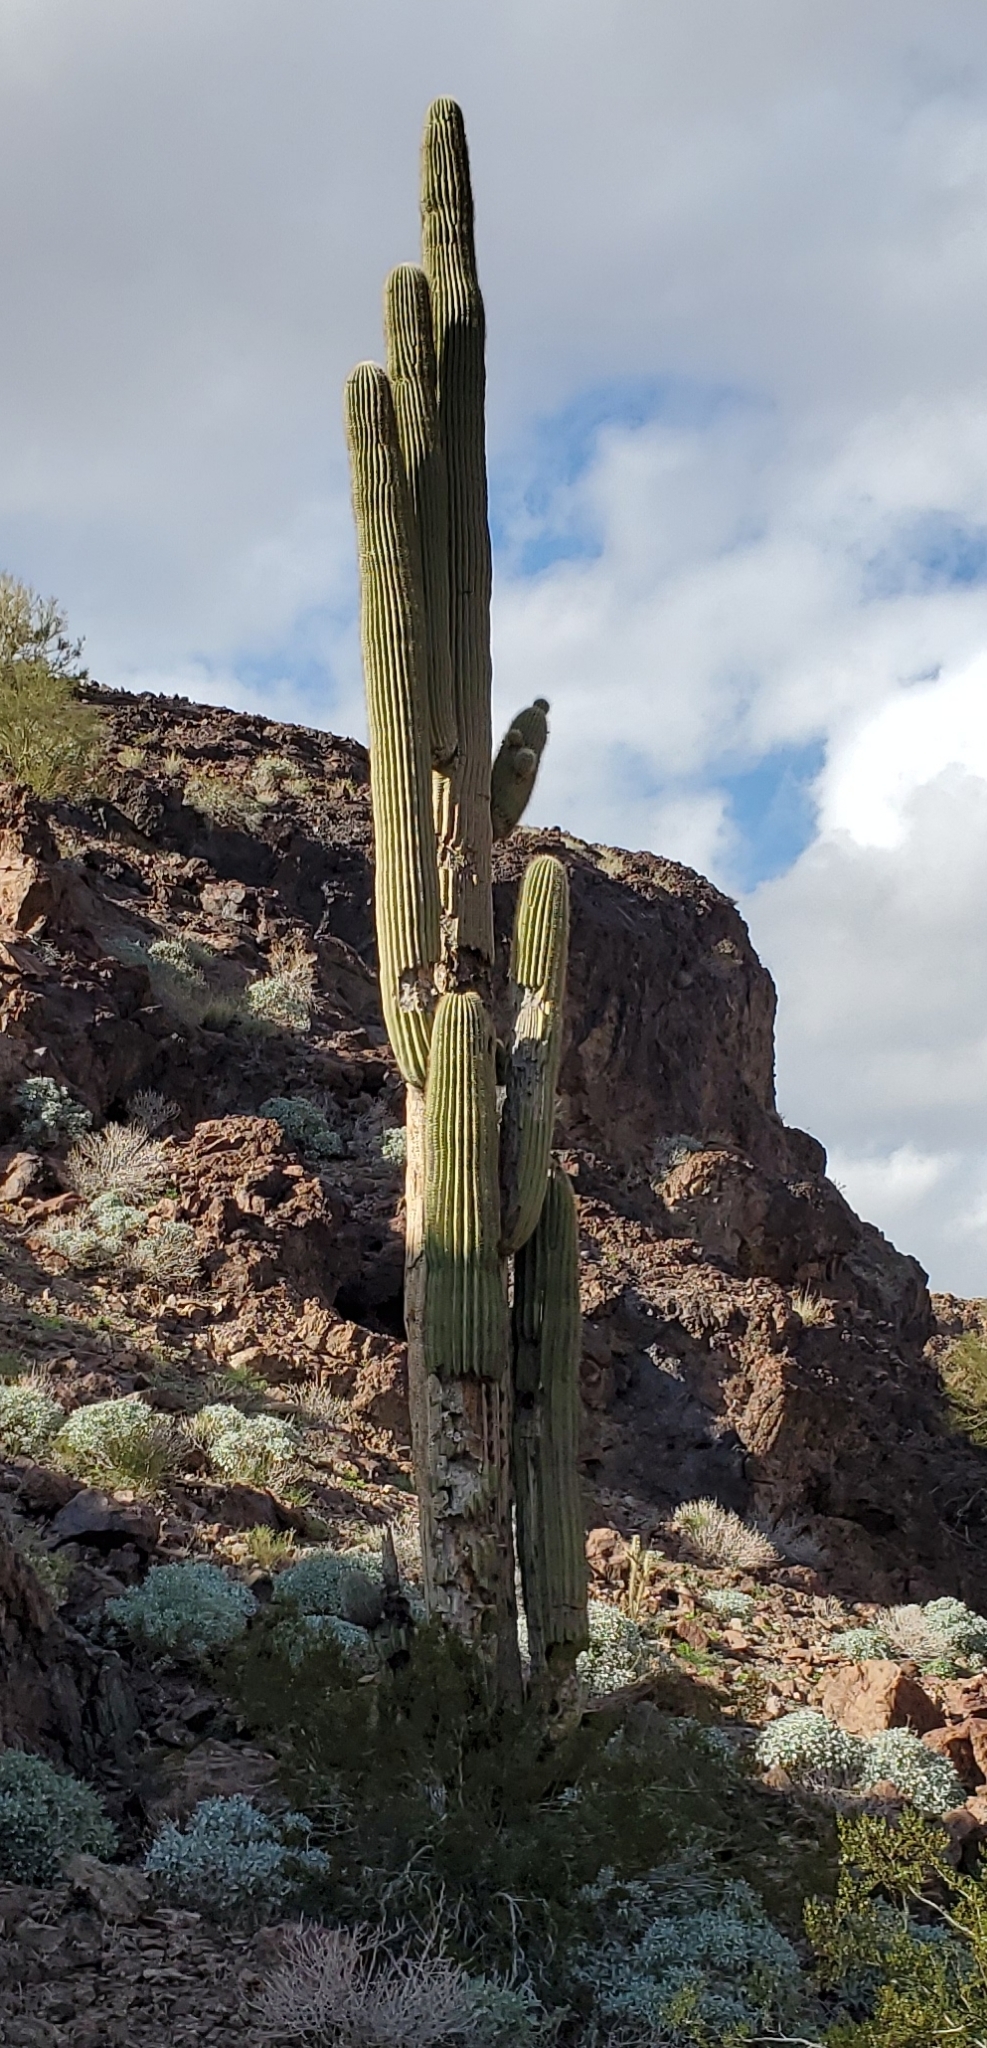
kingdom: Plantae
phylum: Tracheophyta
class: Magnoliopsida
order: Caryophyllales
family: Cactaceae
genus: Carnegiea
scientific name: Carnegiea gigantea
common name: Saguaro
